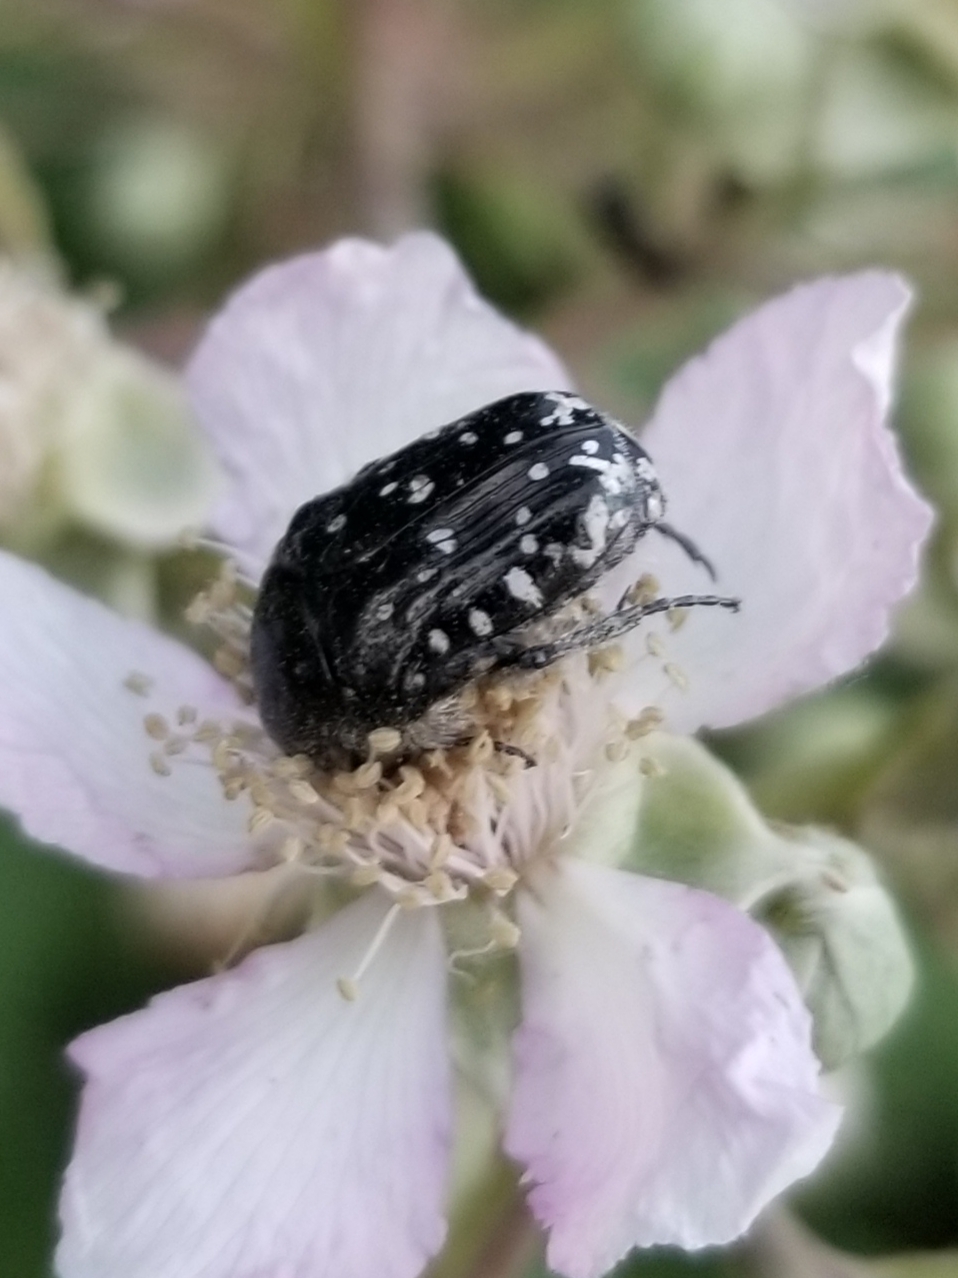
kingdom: Animalia
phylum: Arthropoda
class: Insecta
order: Coleoptera
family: Scarabaeidae
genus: Oxythyrea
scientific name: Oxythyrea funesta
